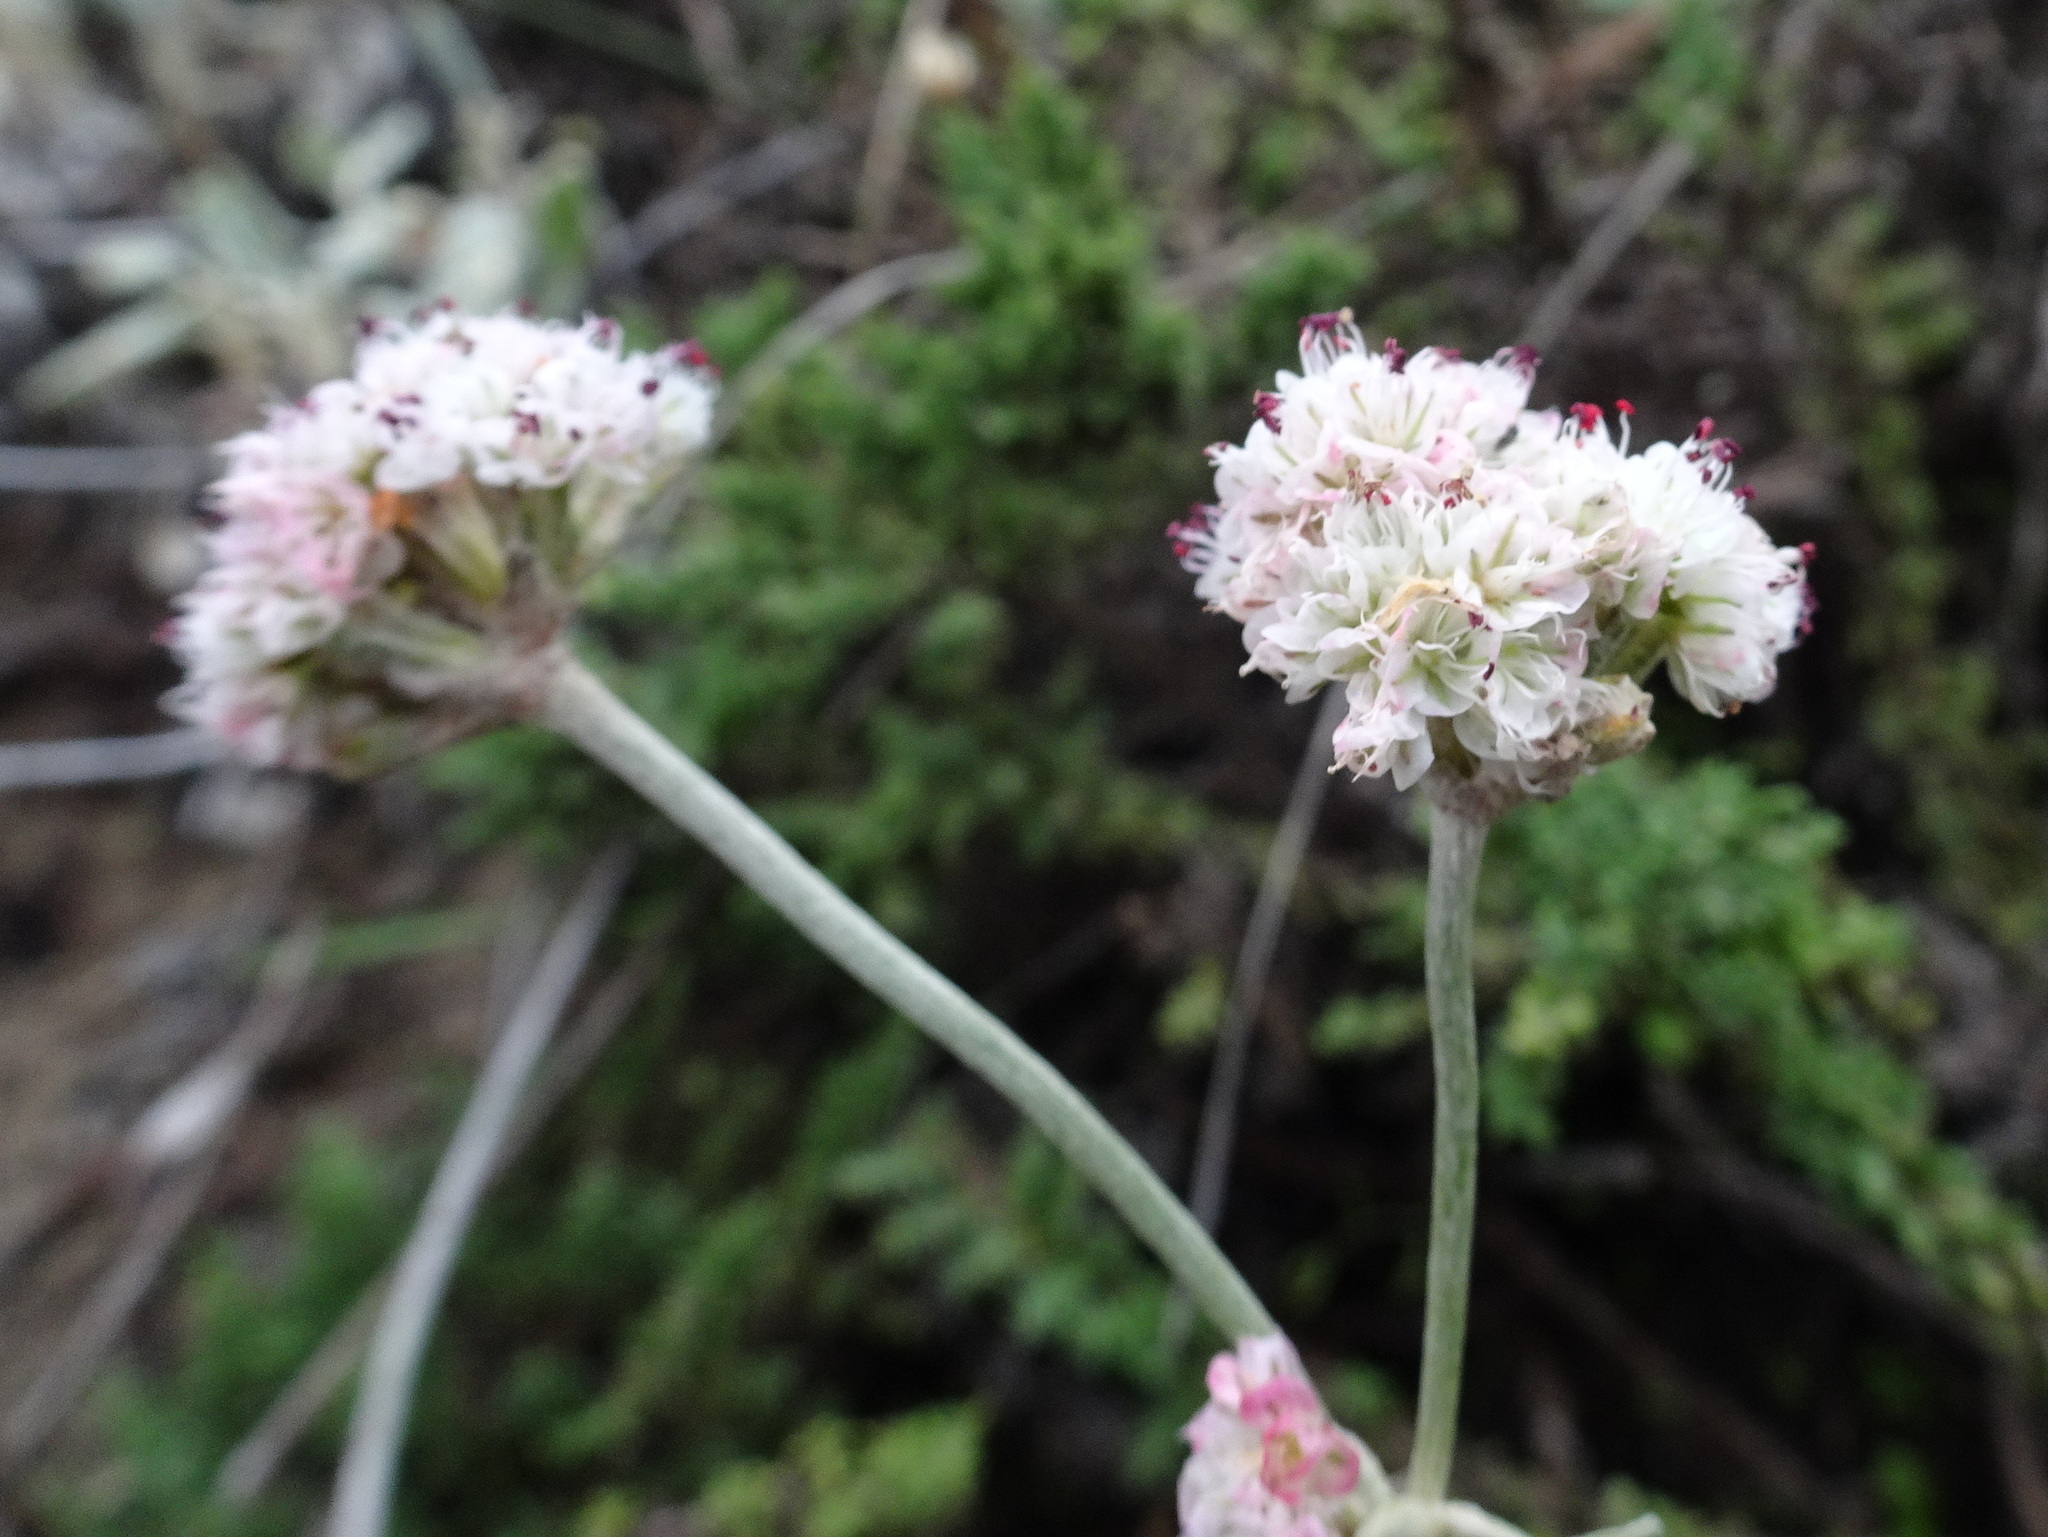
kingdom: Plantae
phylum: Tracheophyta
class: Magnoliopsida
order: Caryophyllales
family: Polygonaceae
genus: Eriogonum
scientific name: Eriogonum latifolium
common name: Seaside wild buckwheat
